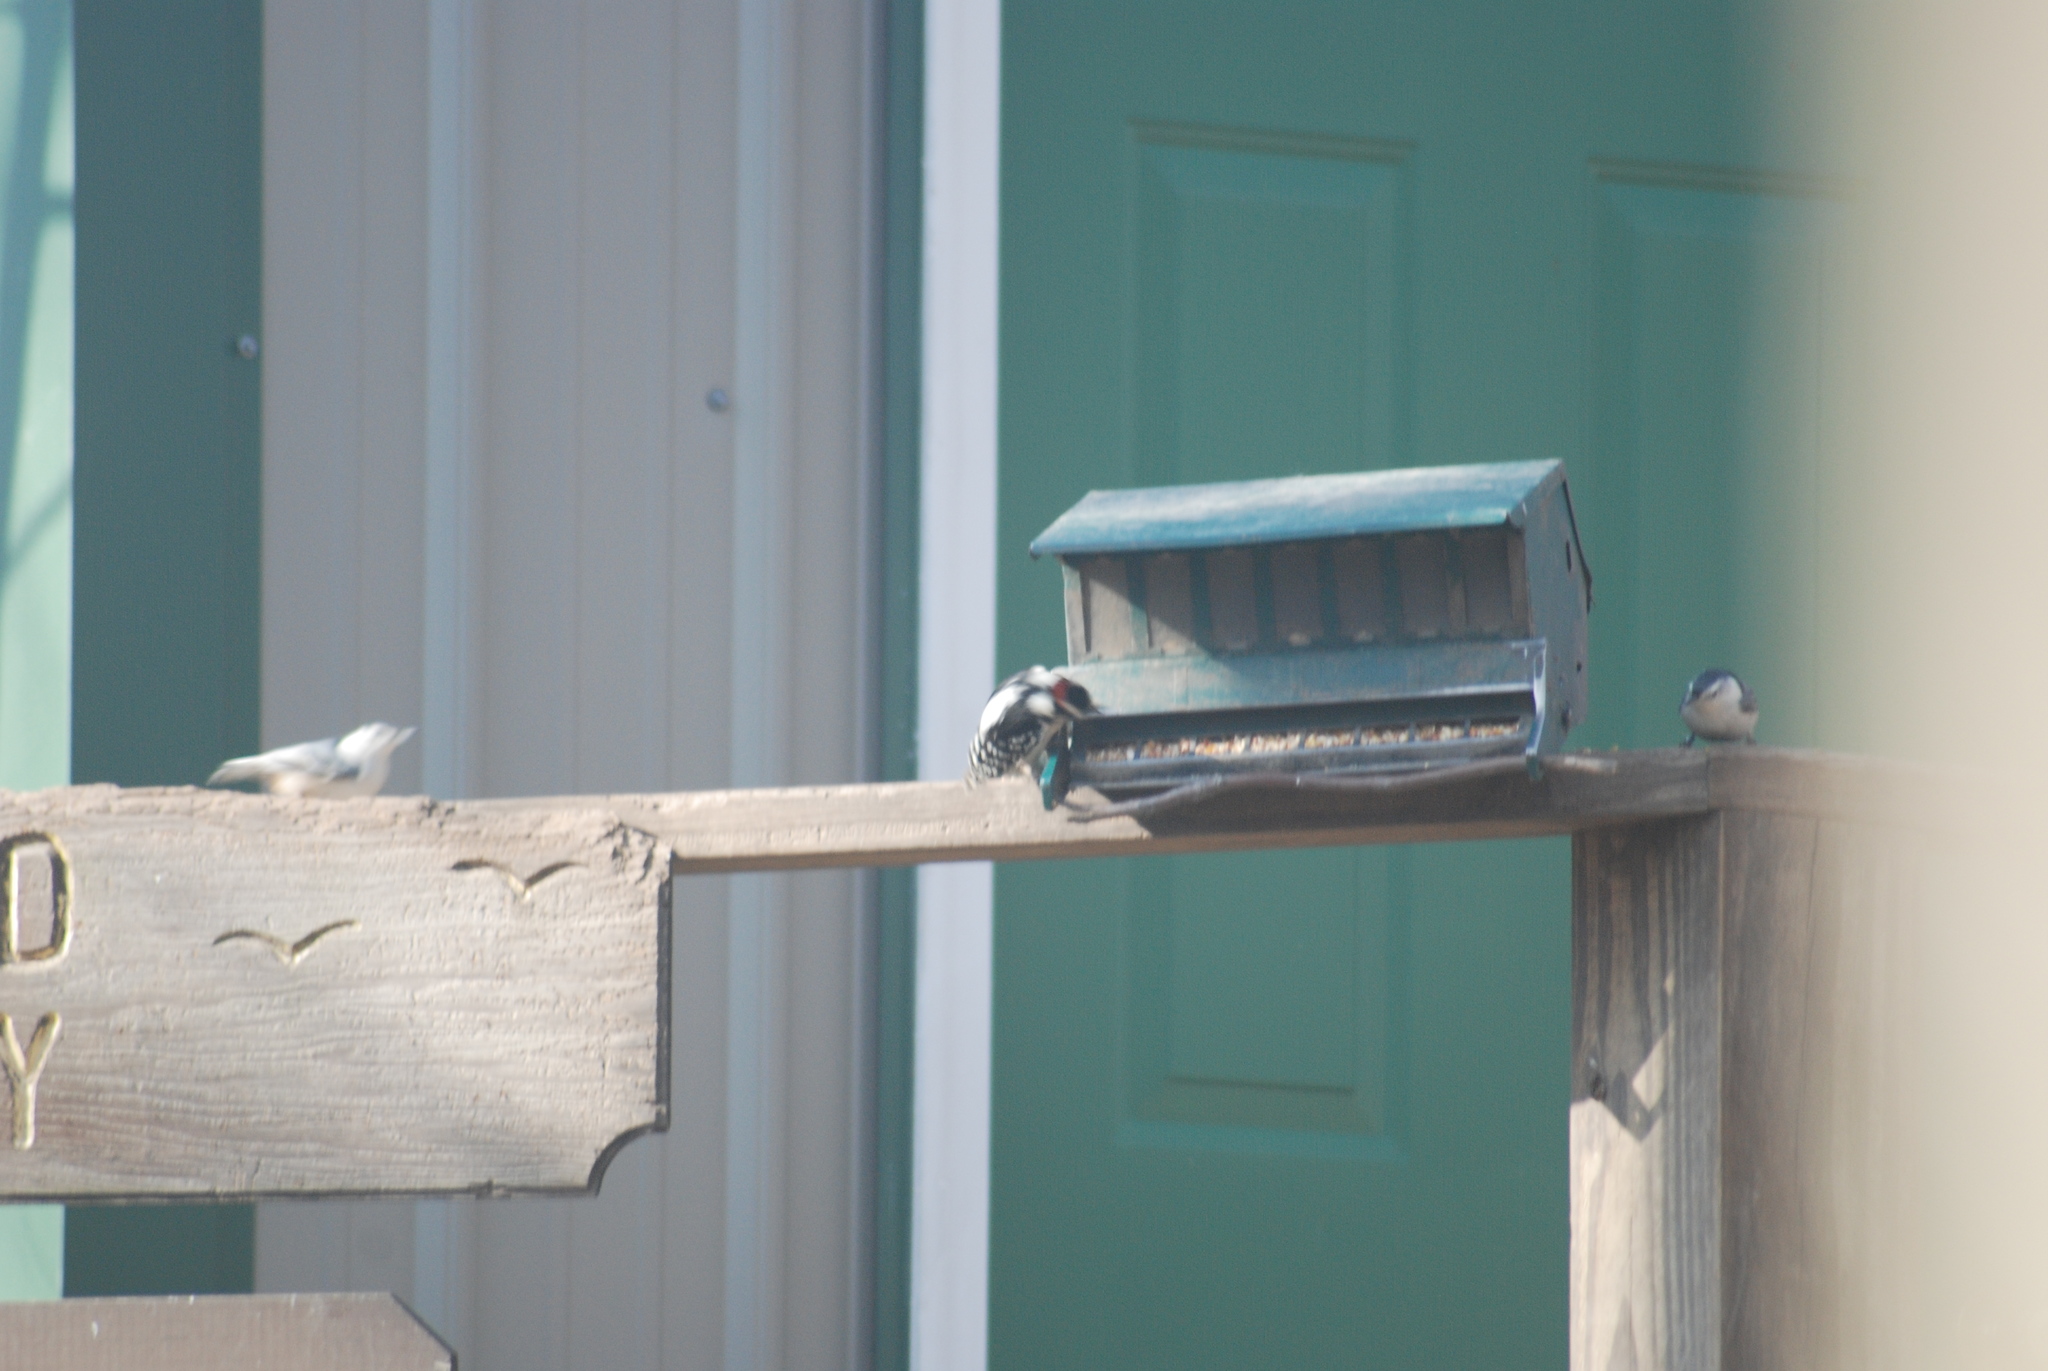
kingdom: Animalia
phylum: Chordata
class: Aves
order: Piciformes
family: Picidae
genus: Dryobates
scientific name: Dryobates pubescens
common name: Downy woodpecker
